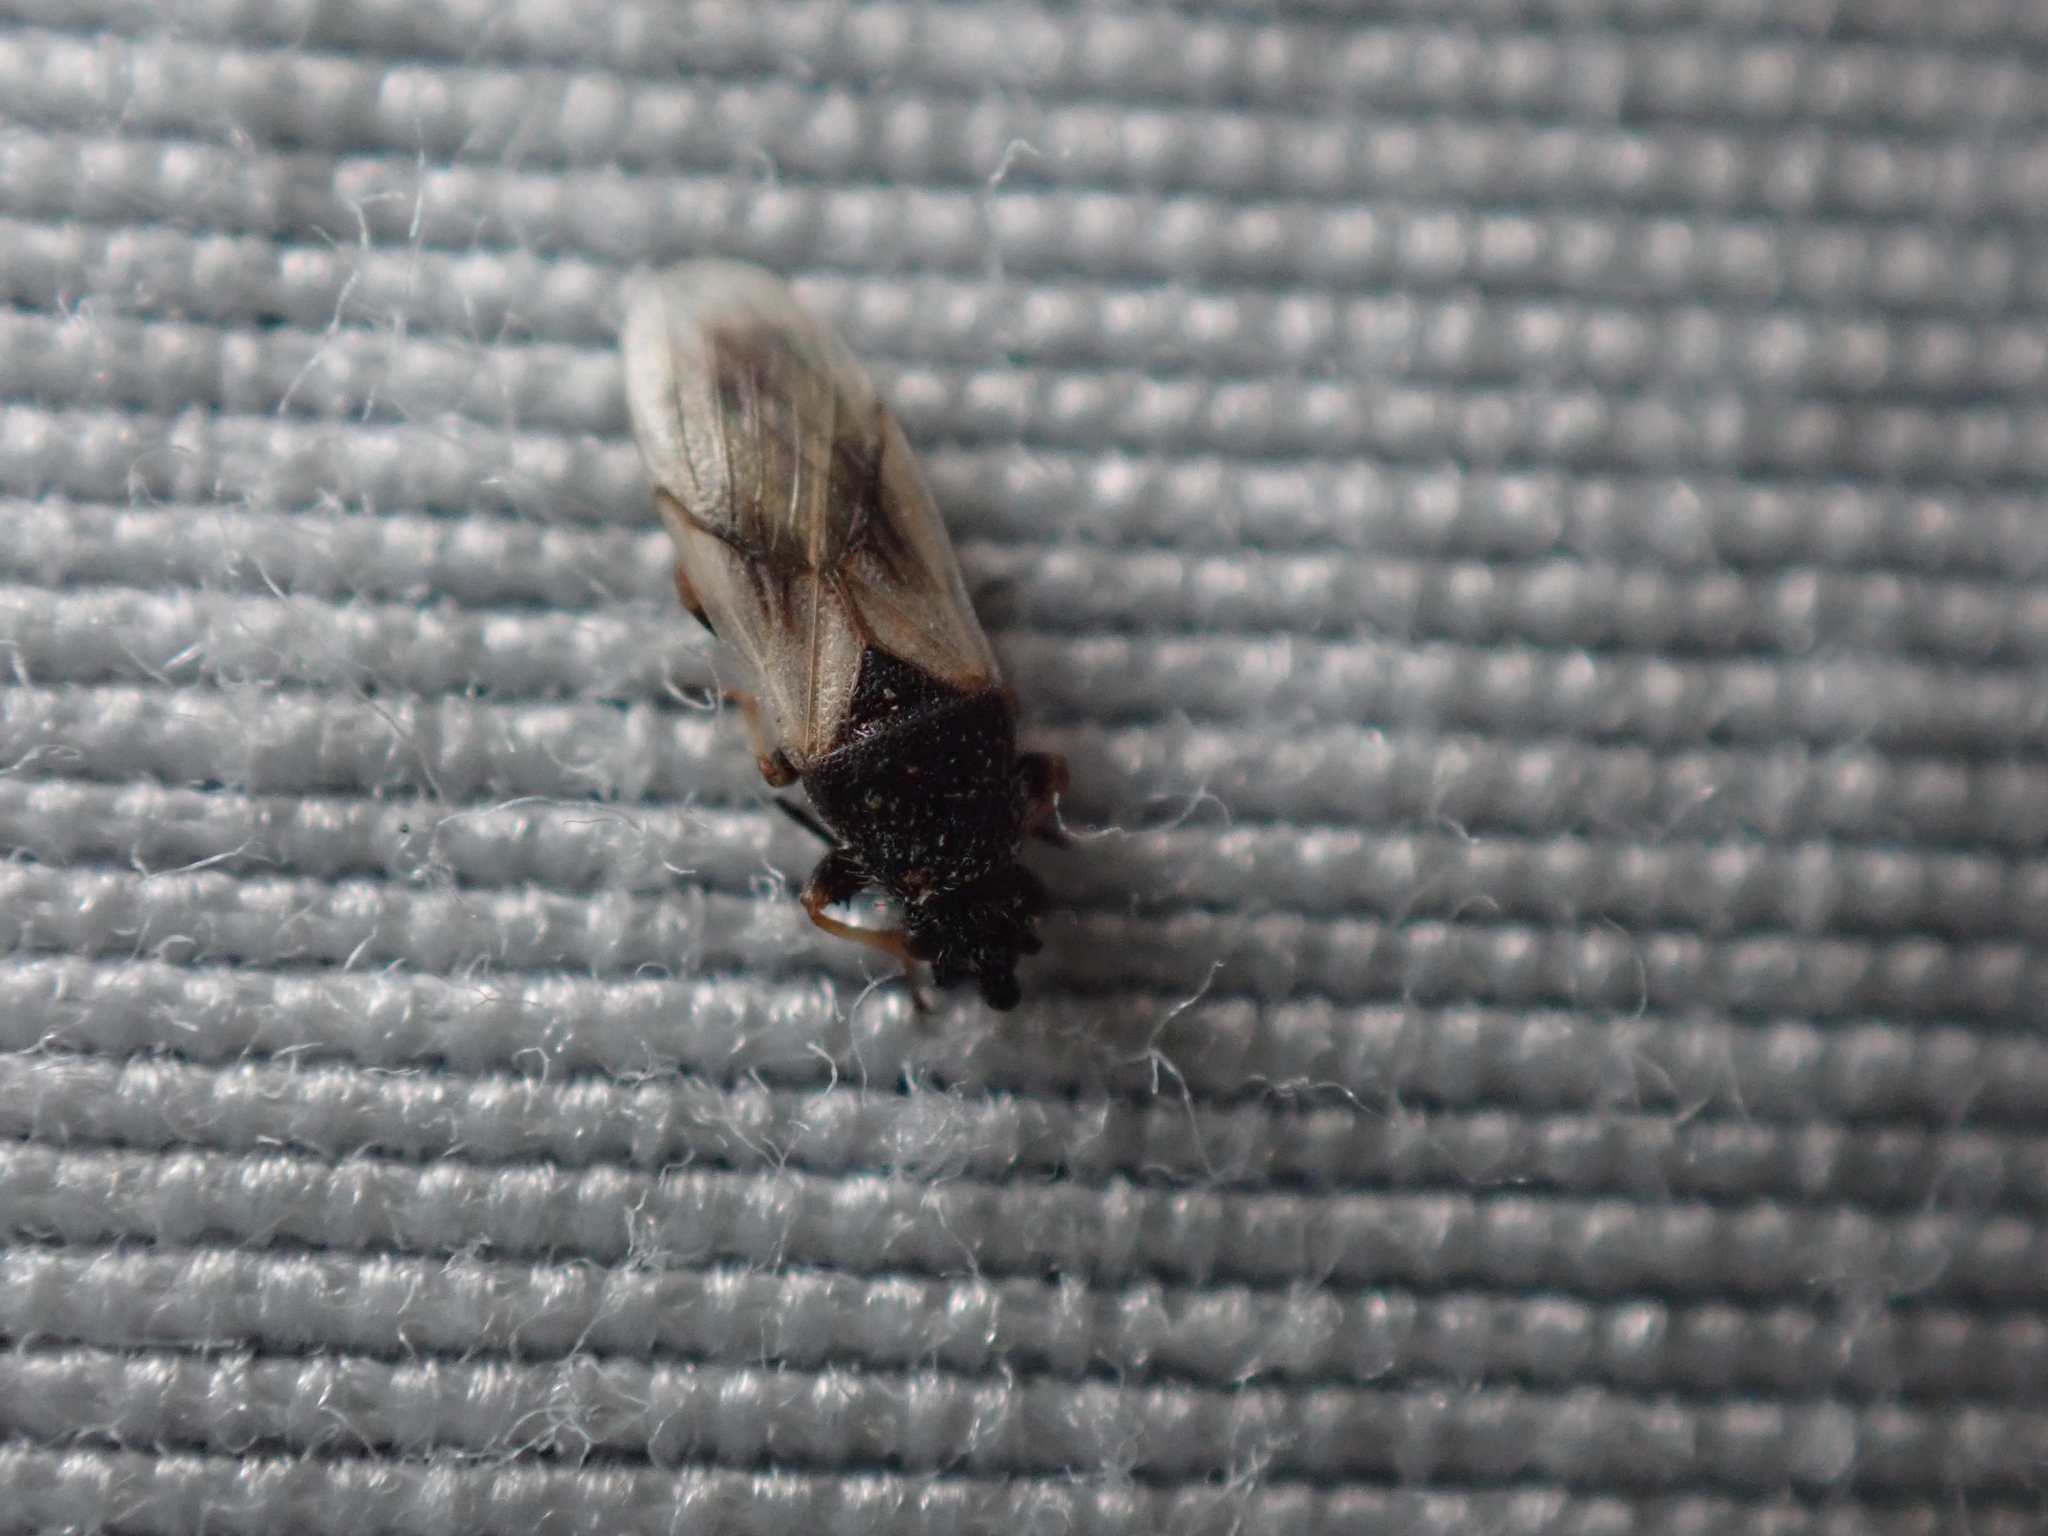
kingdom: Animalia
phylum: Arthropoda
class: Insecta
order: Hemiptera
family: Oxycarenidae
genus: Metopoplax
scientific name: Metopoplax ditomoides
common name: Seed bug
